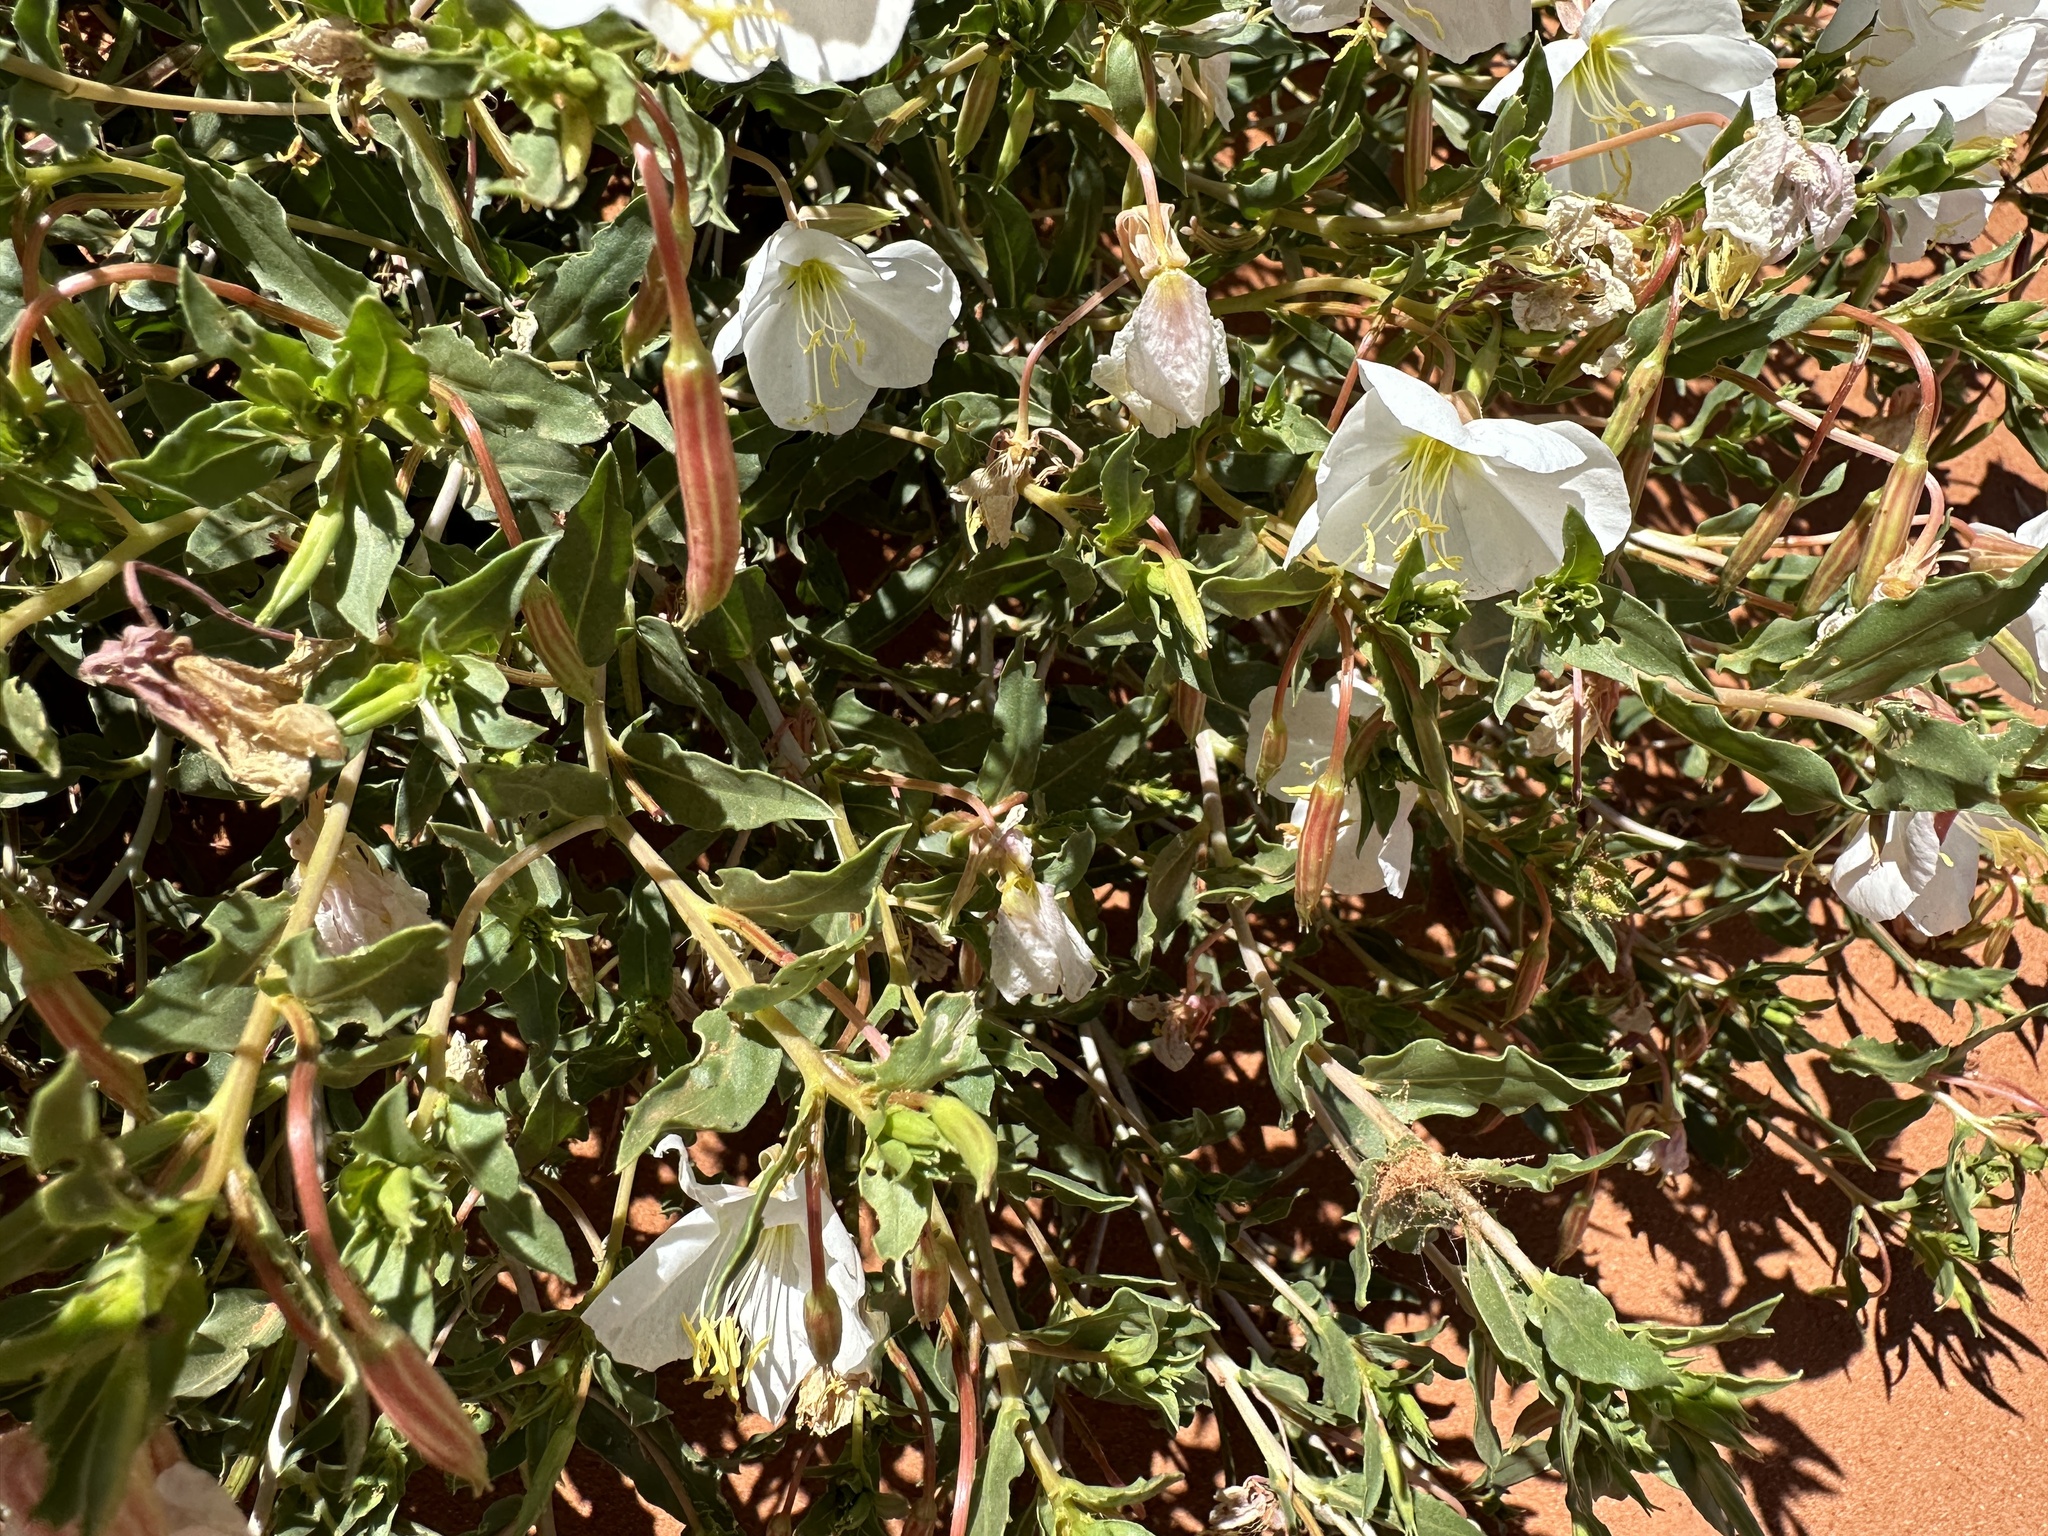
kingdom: Plantae
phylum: Tracheophyta
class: Magnoliopsida
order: Myrtales
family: Onagraceae
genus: Oenothera
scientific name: Oenothera pallida
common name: Pale evening-primrose
